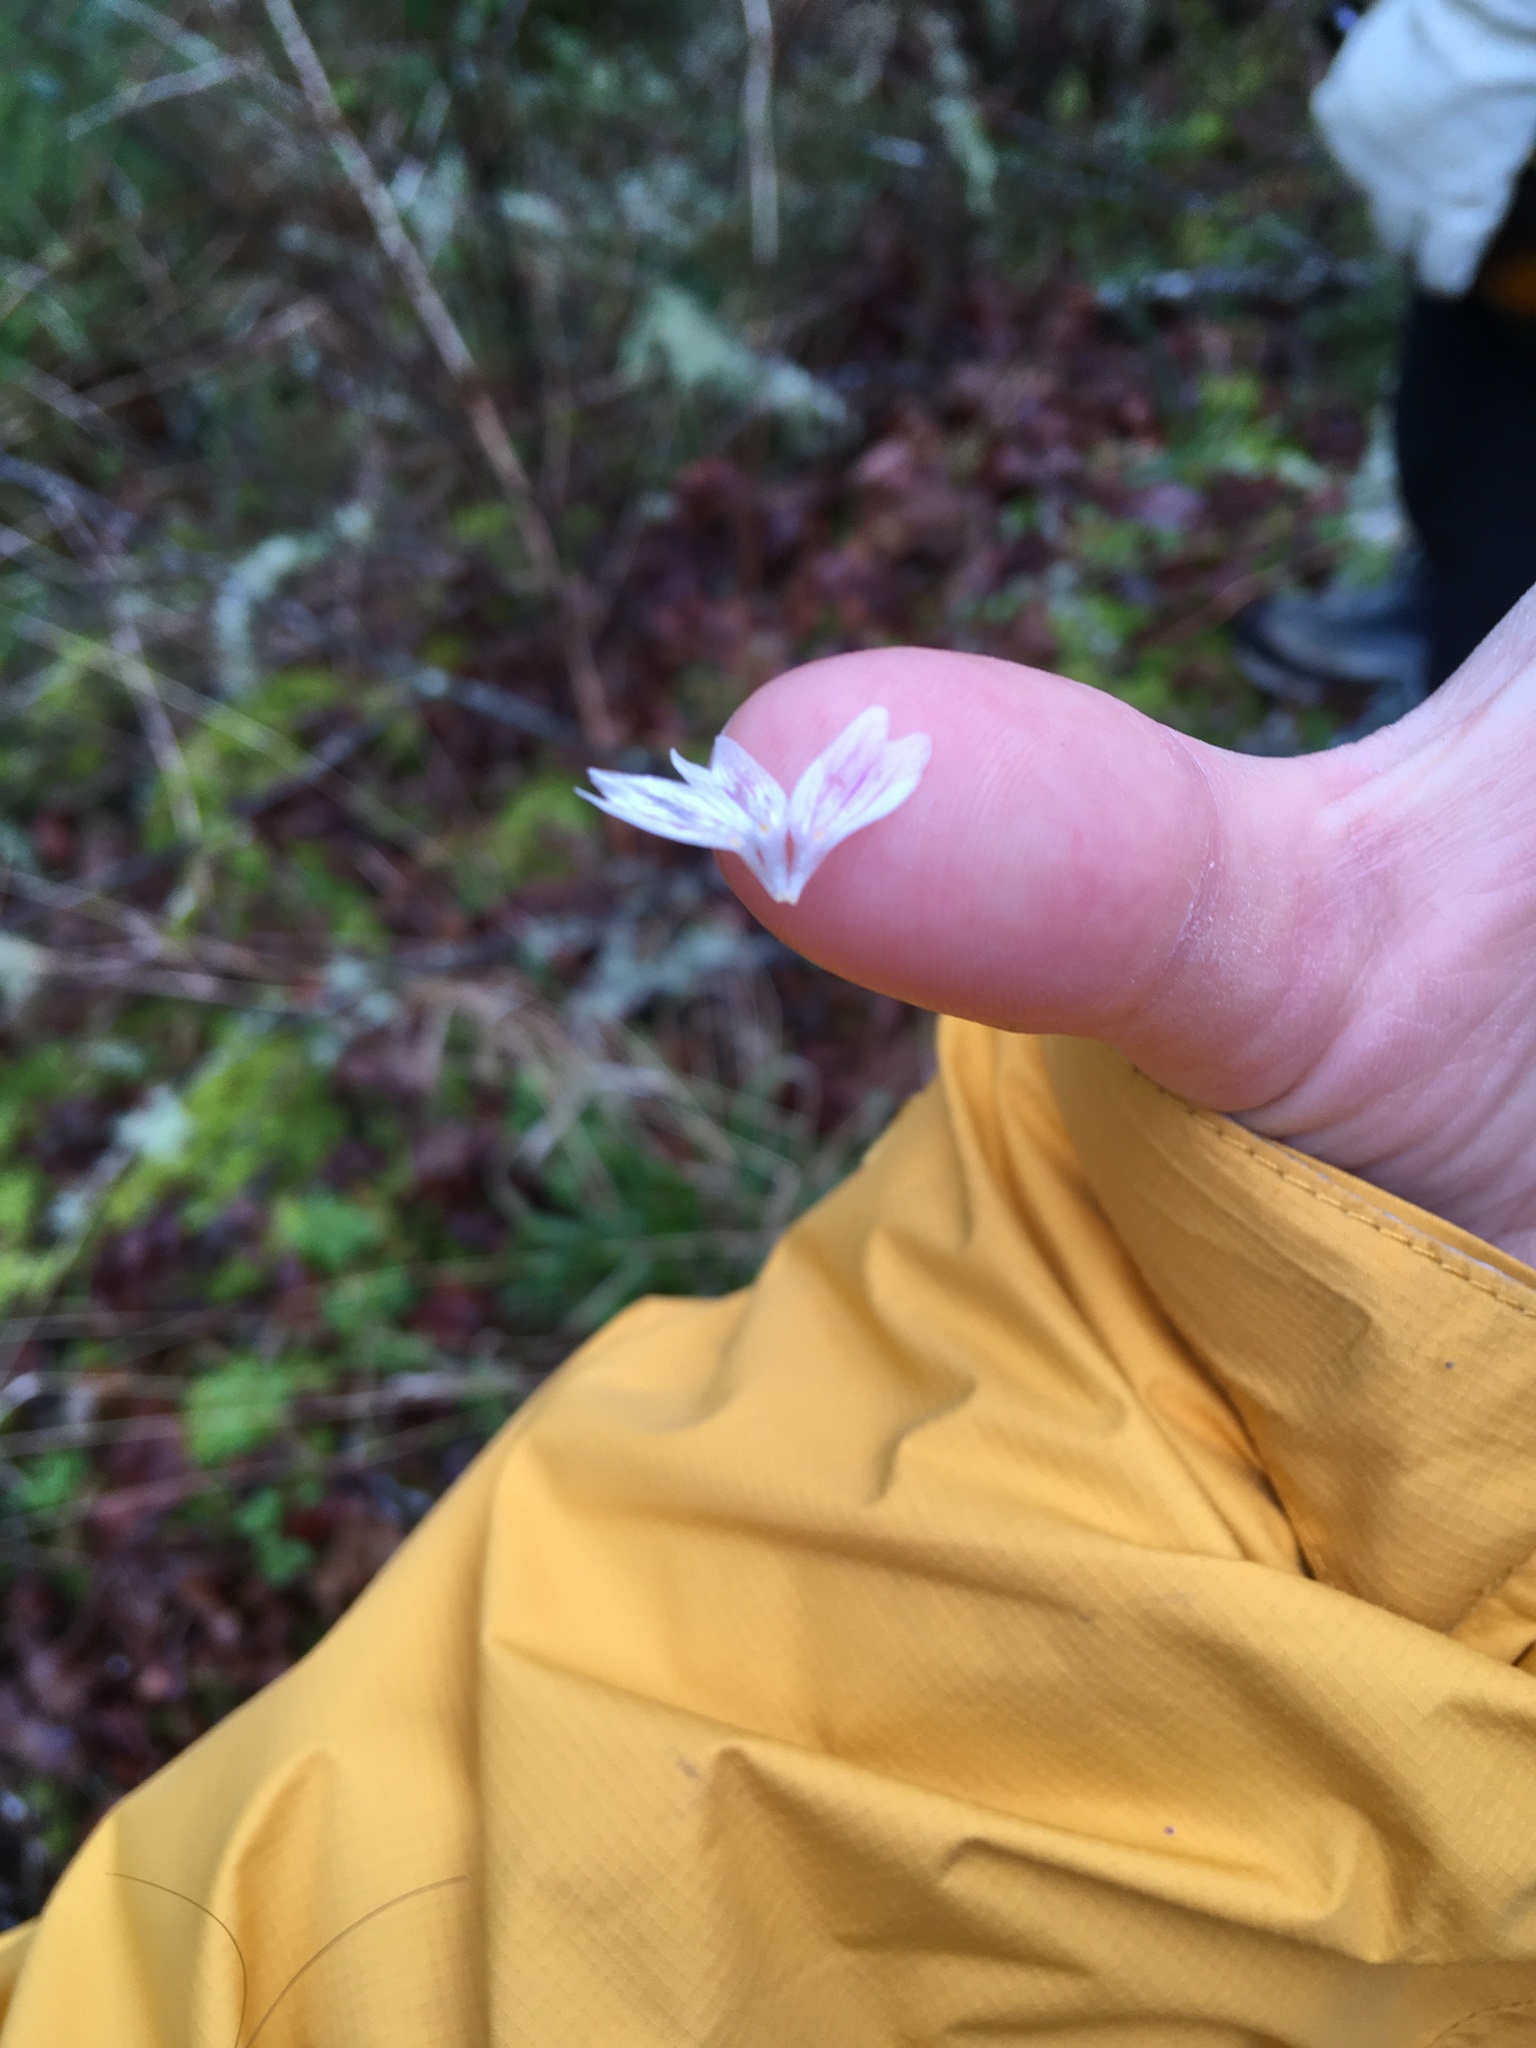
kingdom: Plantae
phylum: Tracheophyta
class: Magnoliopsida
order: Caryophyllales
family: Montiaceae
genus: Claytonia
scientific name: Claytonia sibirica
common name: Pink purslane
